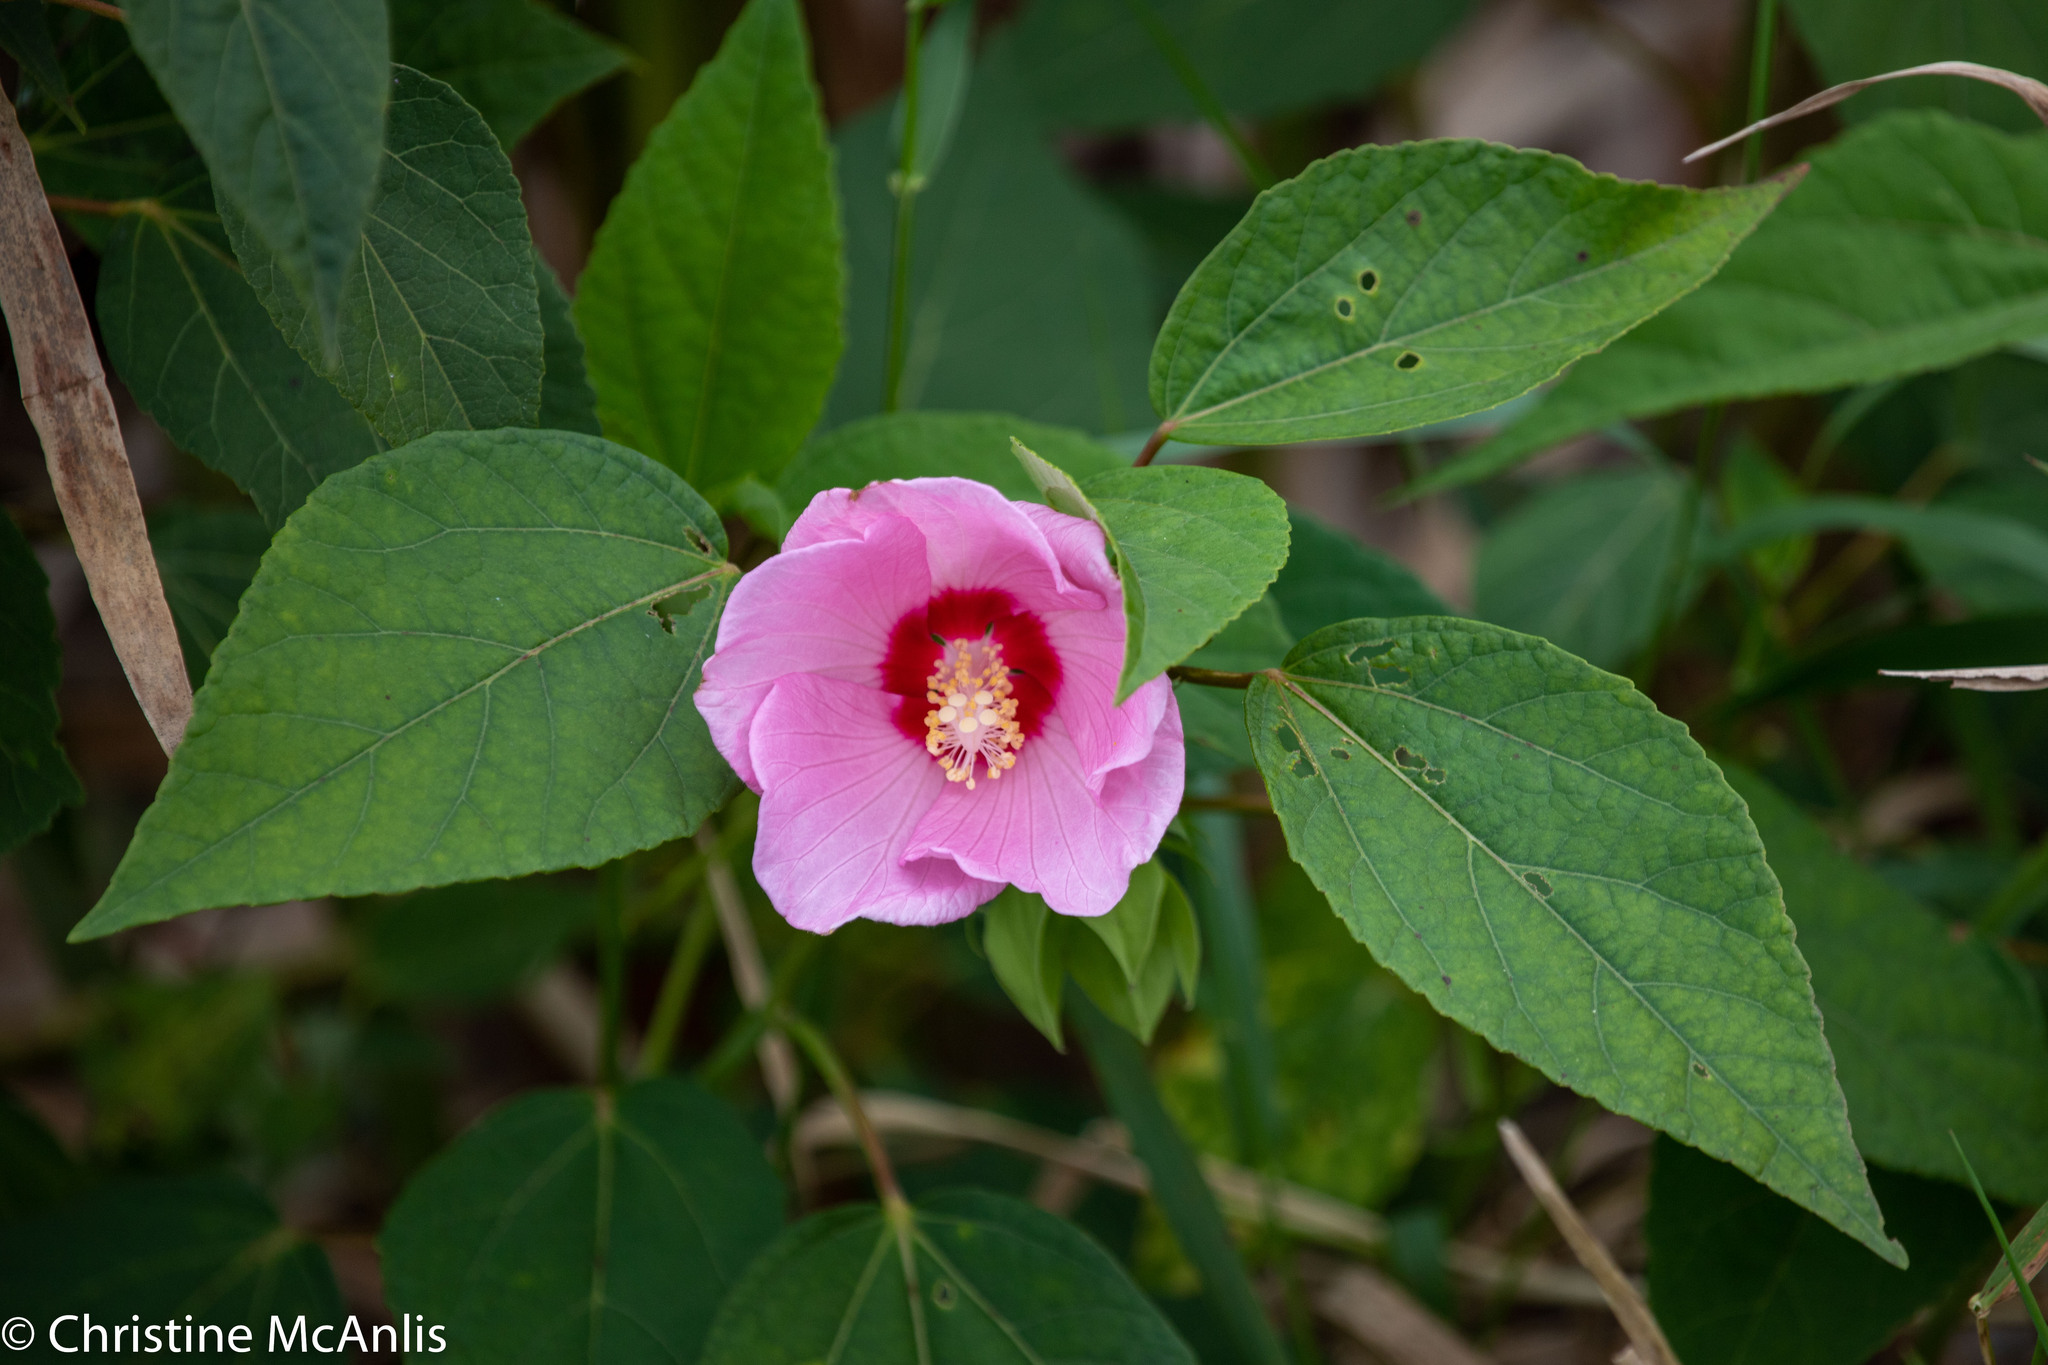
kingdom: Plantae
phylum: Tracheophyta
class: Magnoliopsida
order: Malvales
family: Malvaceae
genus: Hibiscus
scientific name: Hibiscus moscheutos
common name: Common rose-mallow
